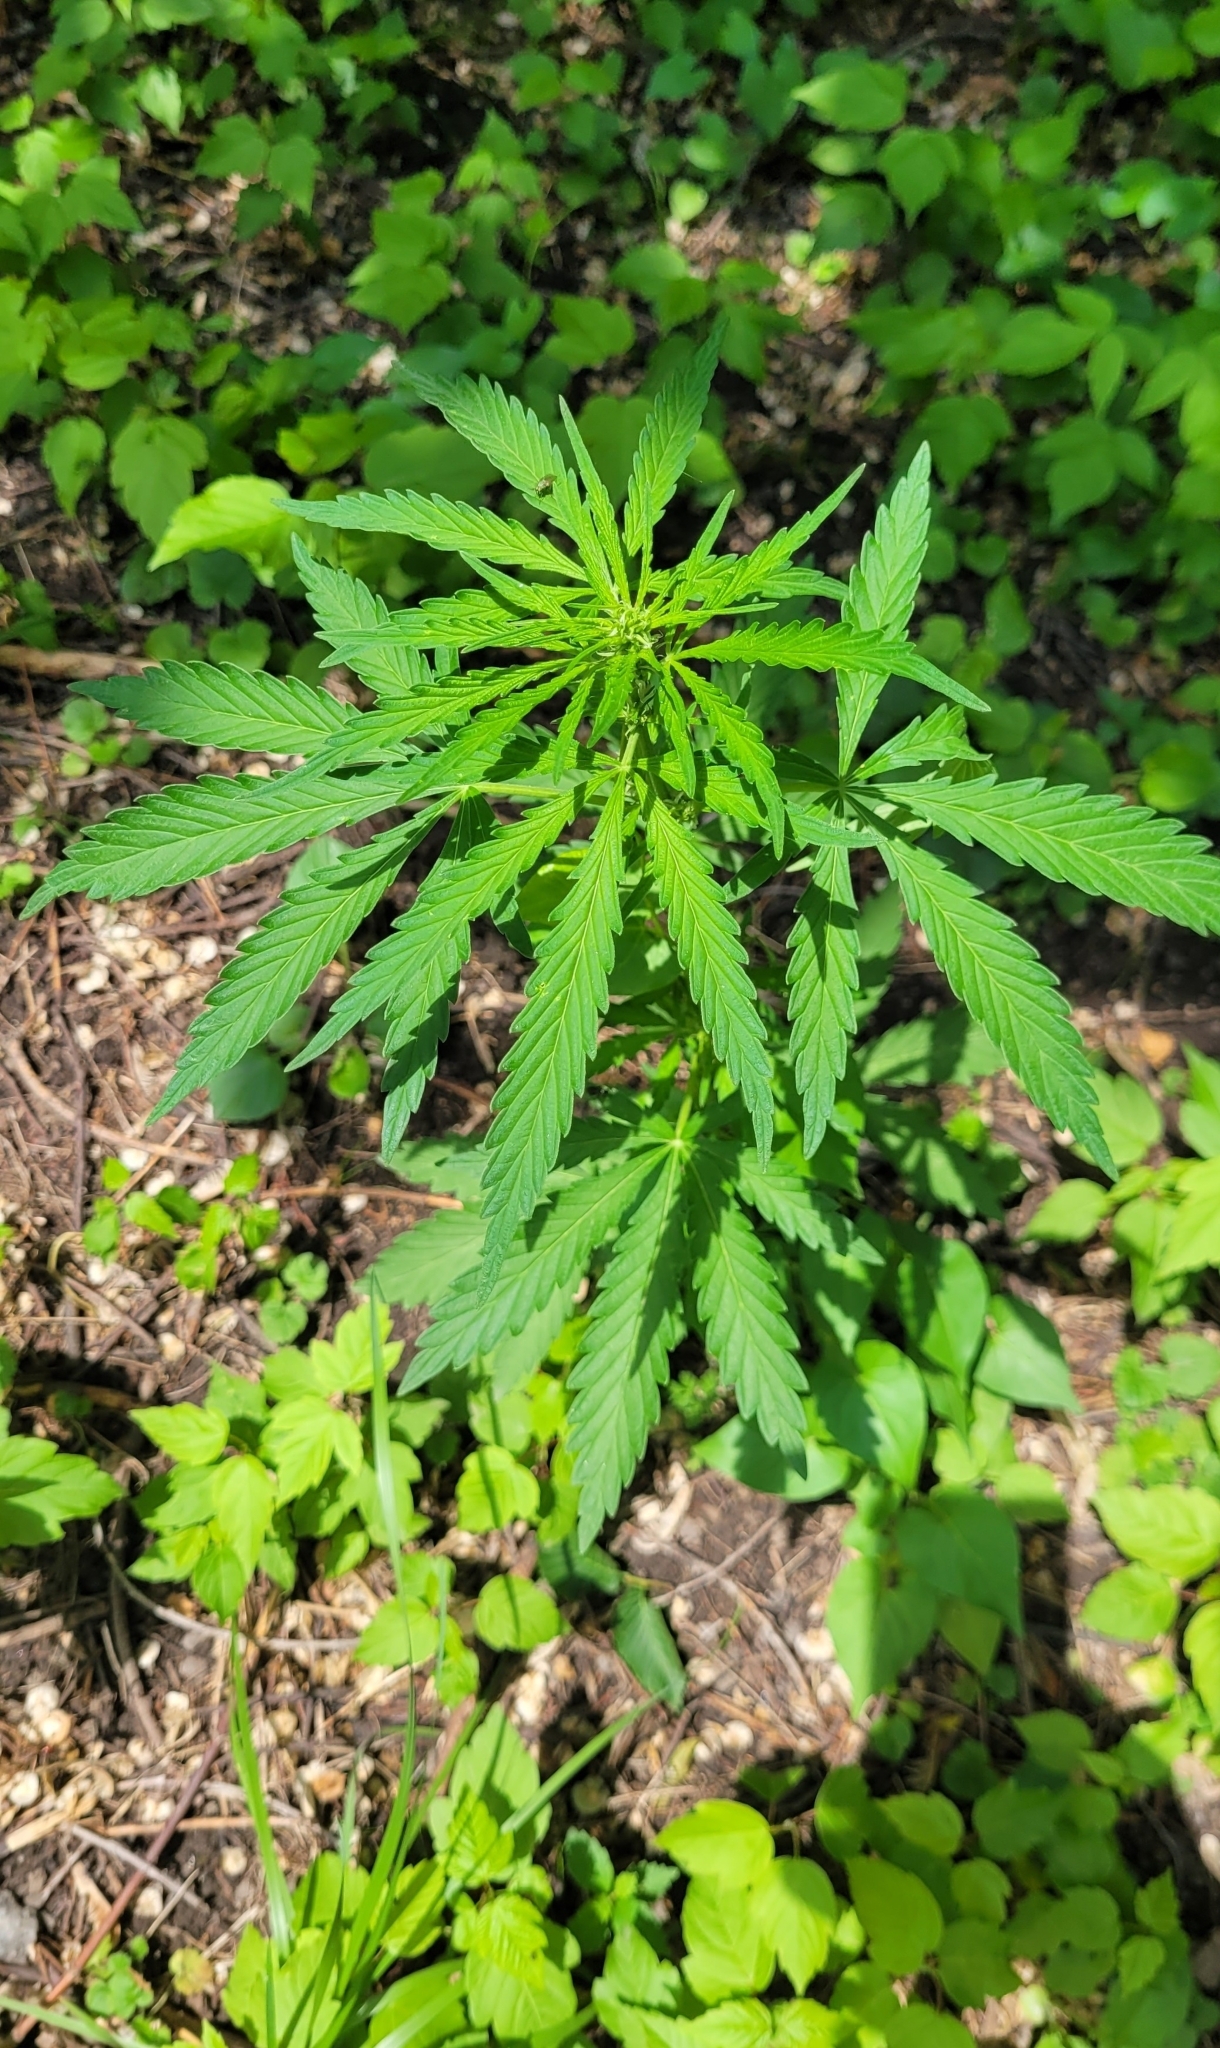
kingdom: Plantae
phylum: Tracheophyta
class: Magnoliopsida
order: Rosales
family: Cannabaceae
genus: Cannabis
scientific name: Cannabis sativa
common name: Hemp
